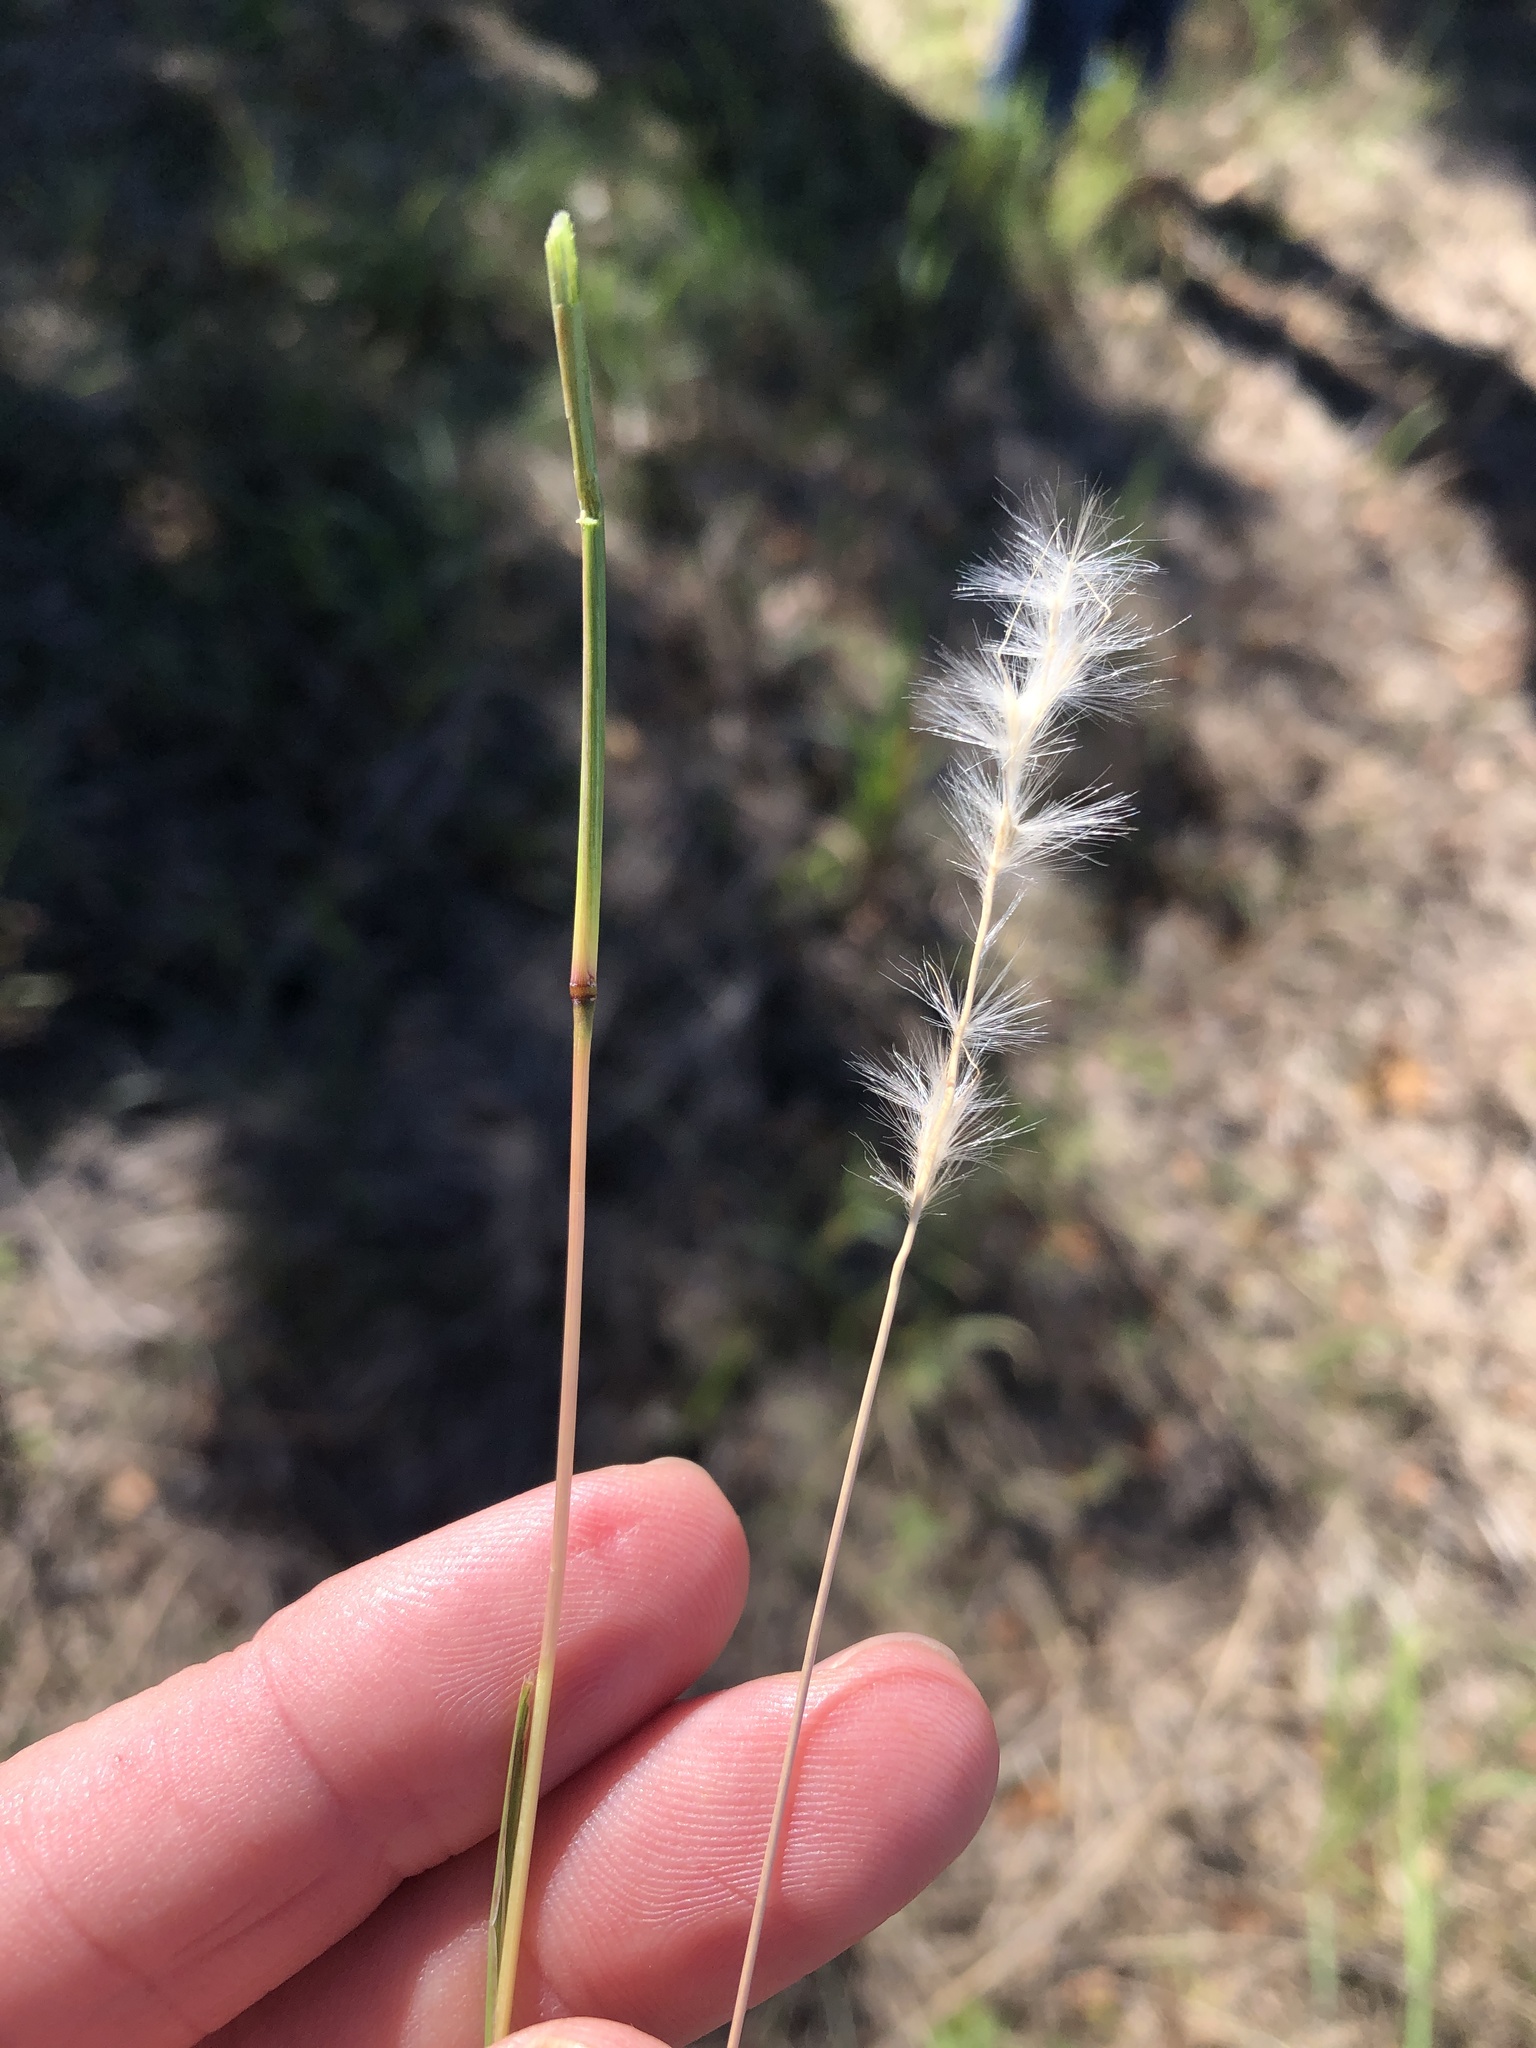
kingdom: Plantae
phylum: Tracheophyta
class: Liliopsida
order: Poales
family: Poaceae
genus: Bothriochloa
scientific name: Bothriochloa torreyana
